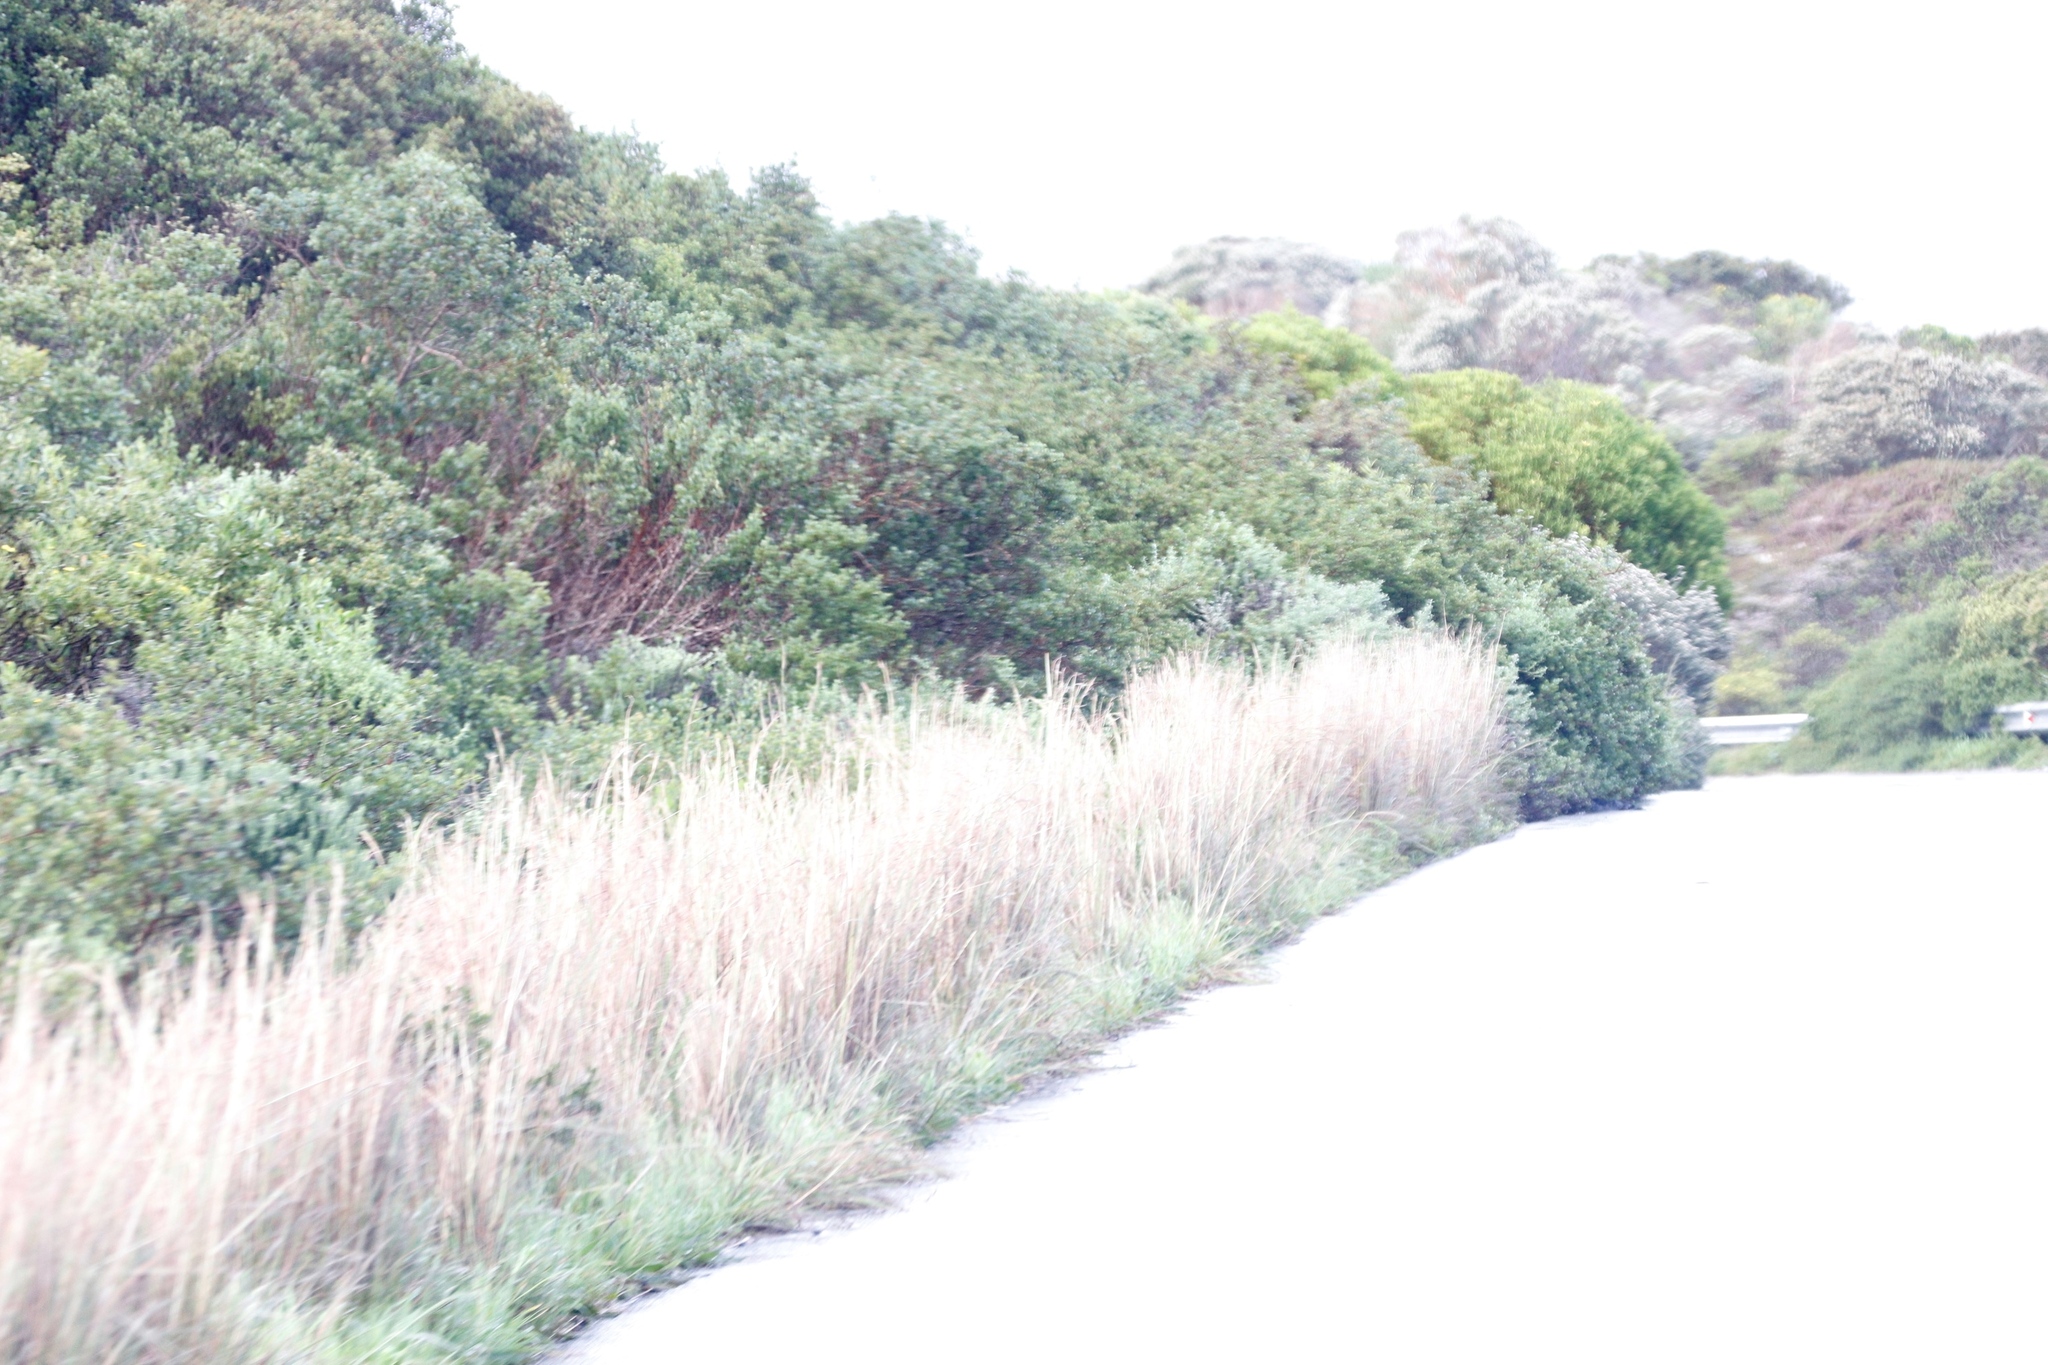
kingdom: Plantae
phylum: Tracheophyta
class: Liliopsida
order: Poales
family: Poaceae
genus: Hyparrhenia
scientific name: Hyparrhenia hirta
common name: Thatching grass
